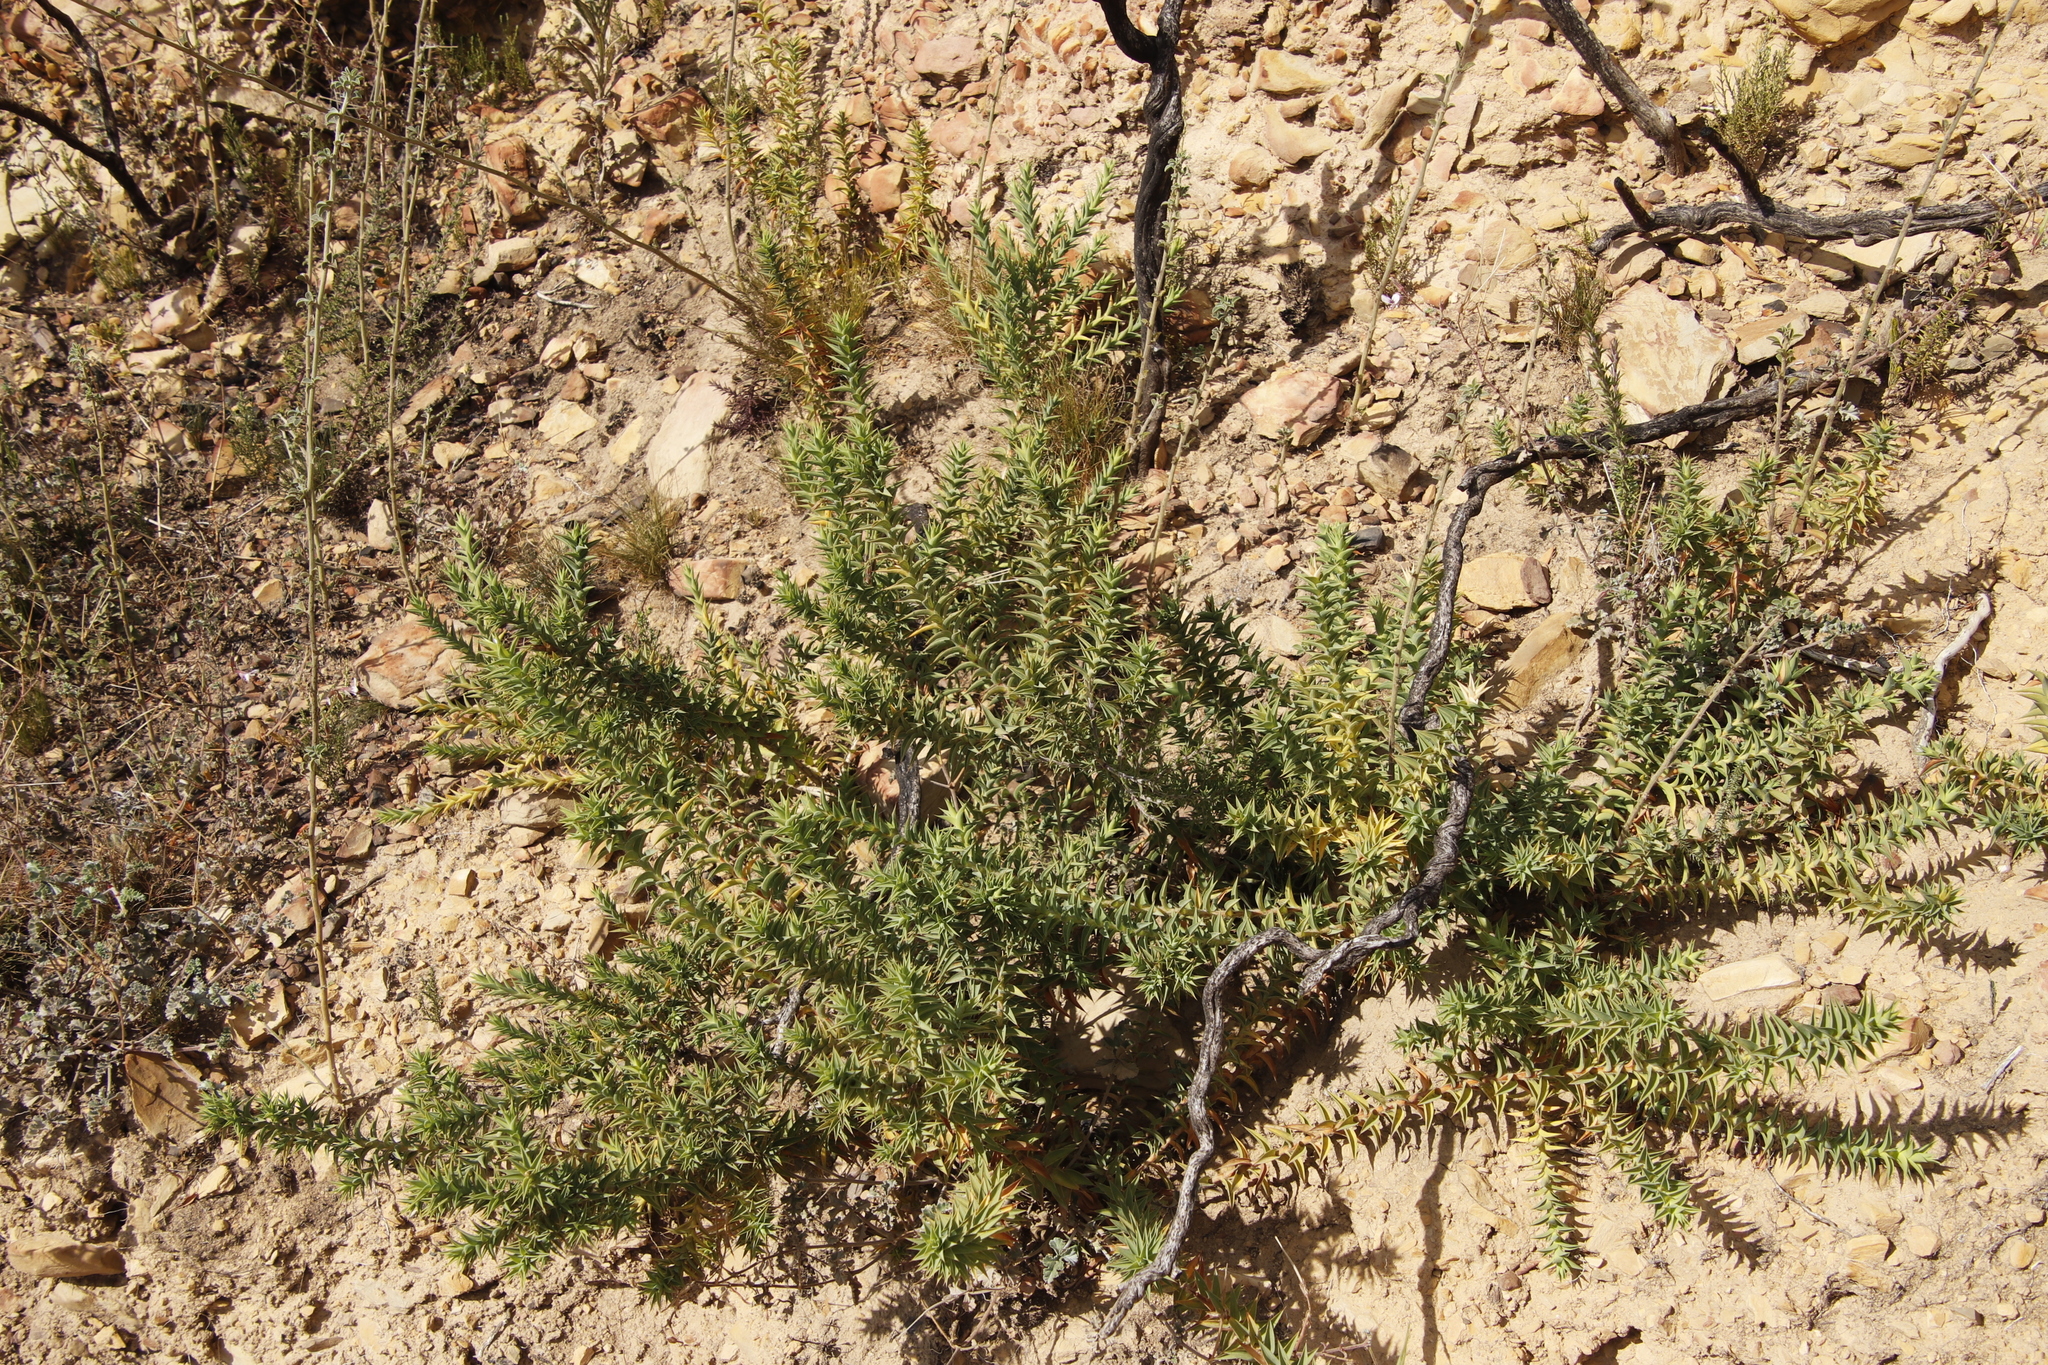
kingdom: Plantae
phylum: Tracheophyta
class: Magnoliopsida
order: Fabales
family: Fabaceae
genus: Aspalathus
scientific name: Aspalathus cordata
